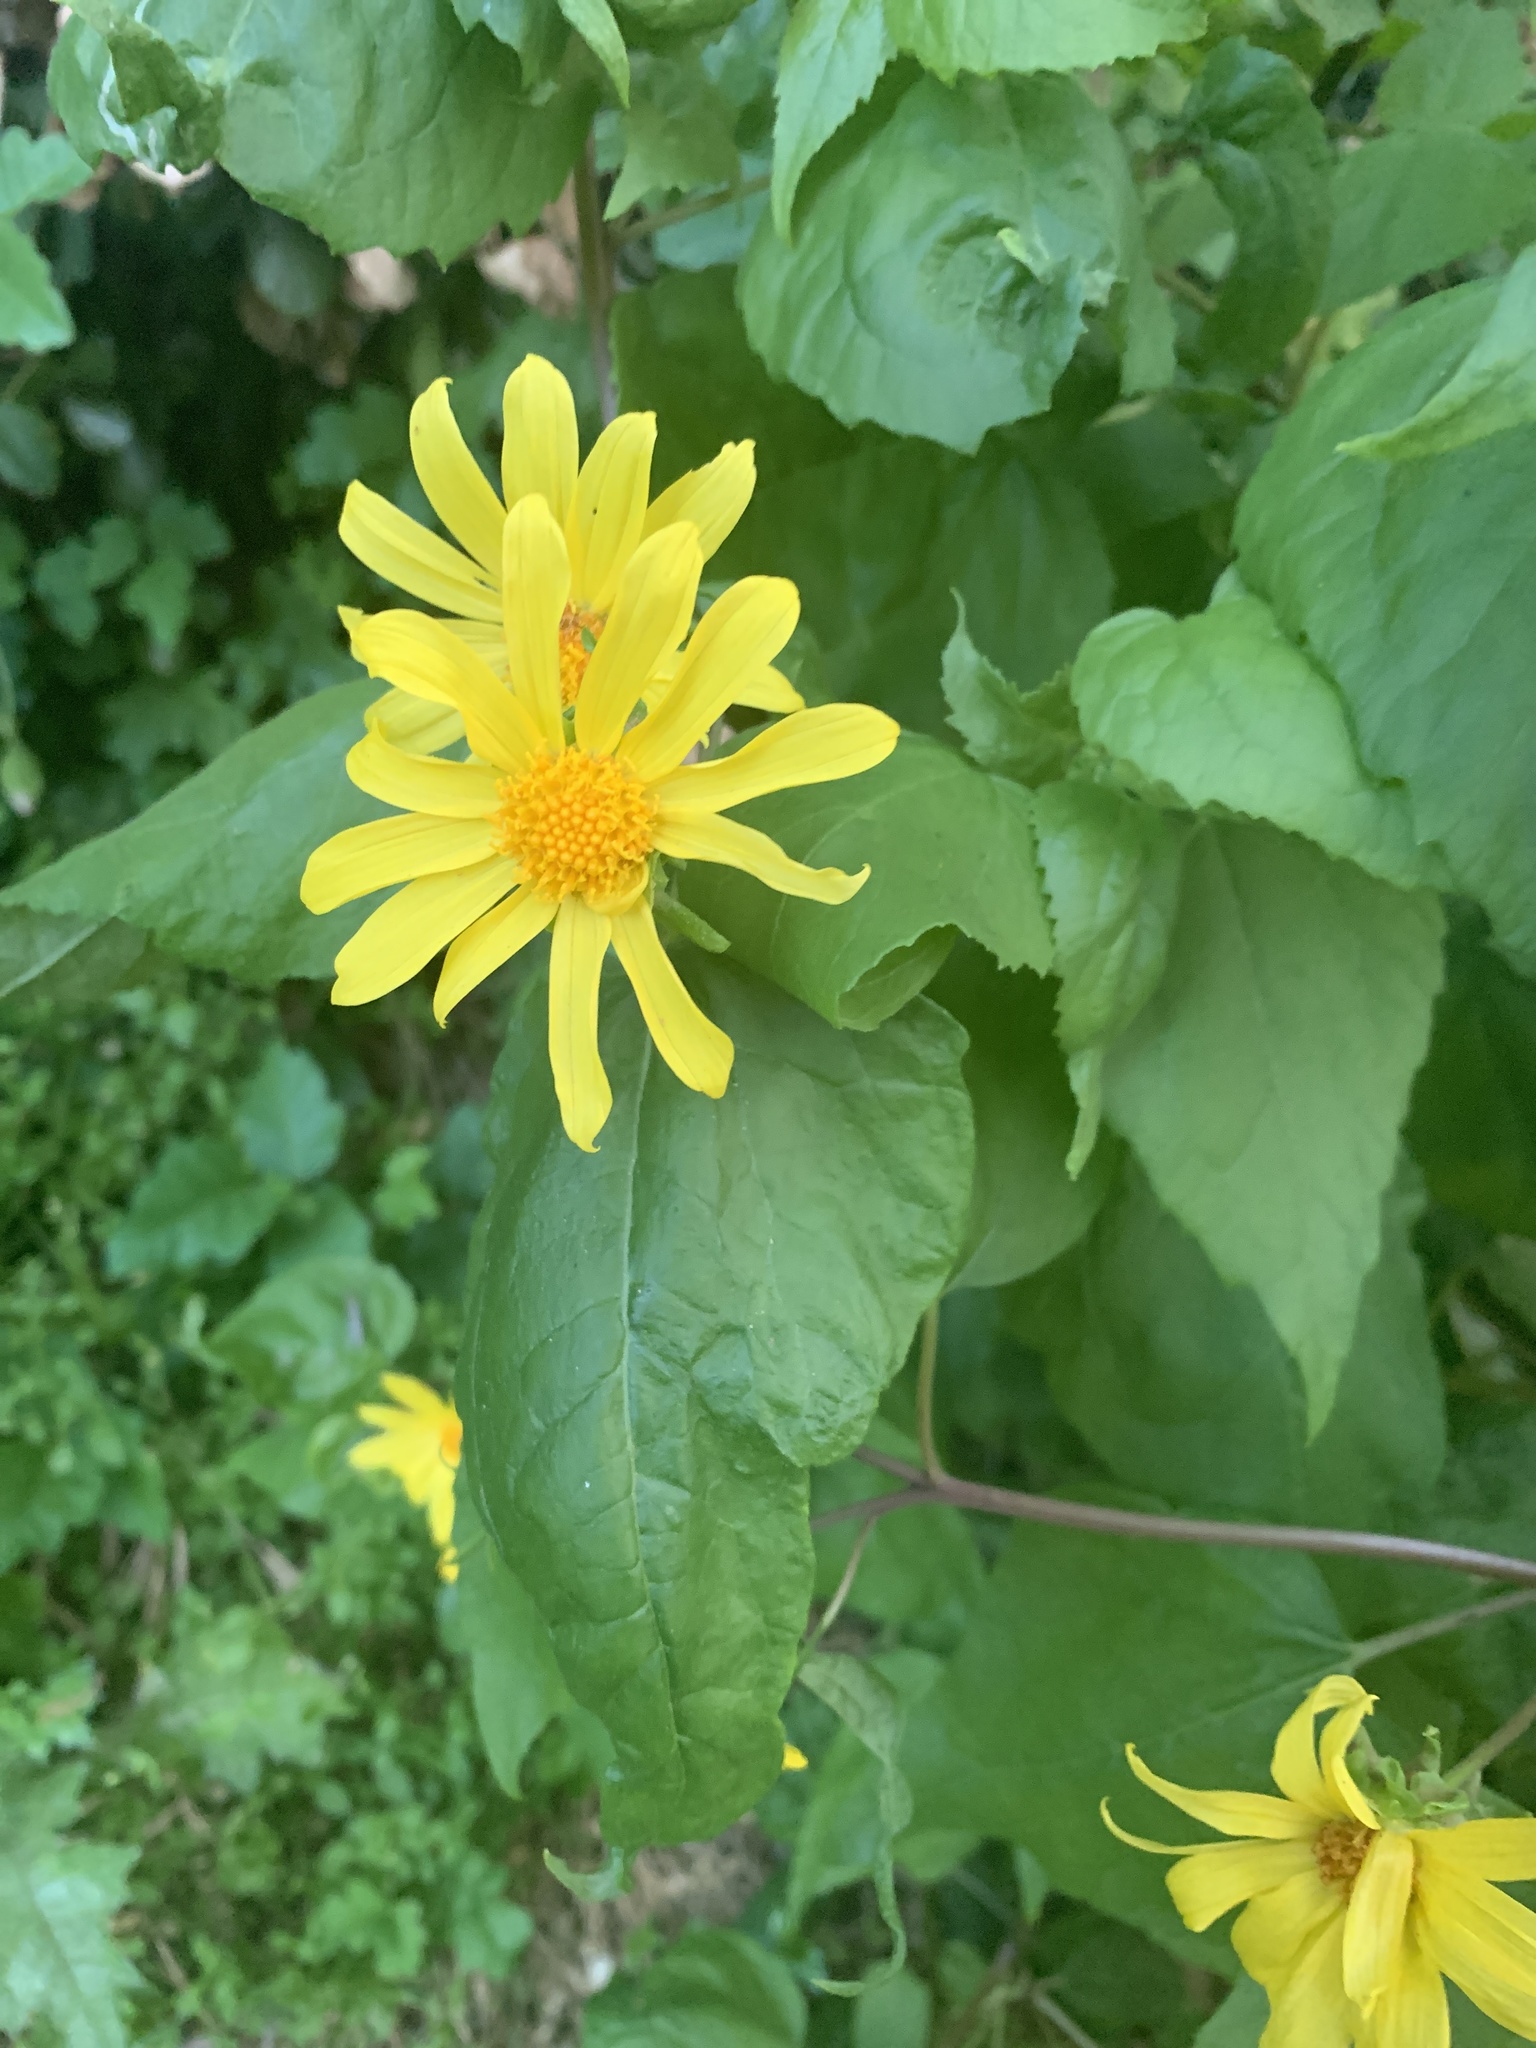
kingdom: Plantae
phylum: Tracheophyta
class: Magnoliopsida
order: Asterales
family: Asteraceae
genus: Venegasia
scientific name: Venegasia carpesioides
